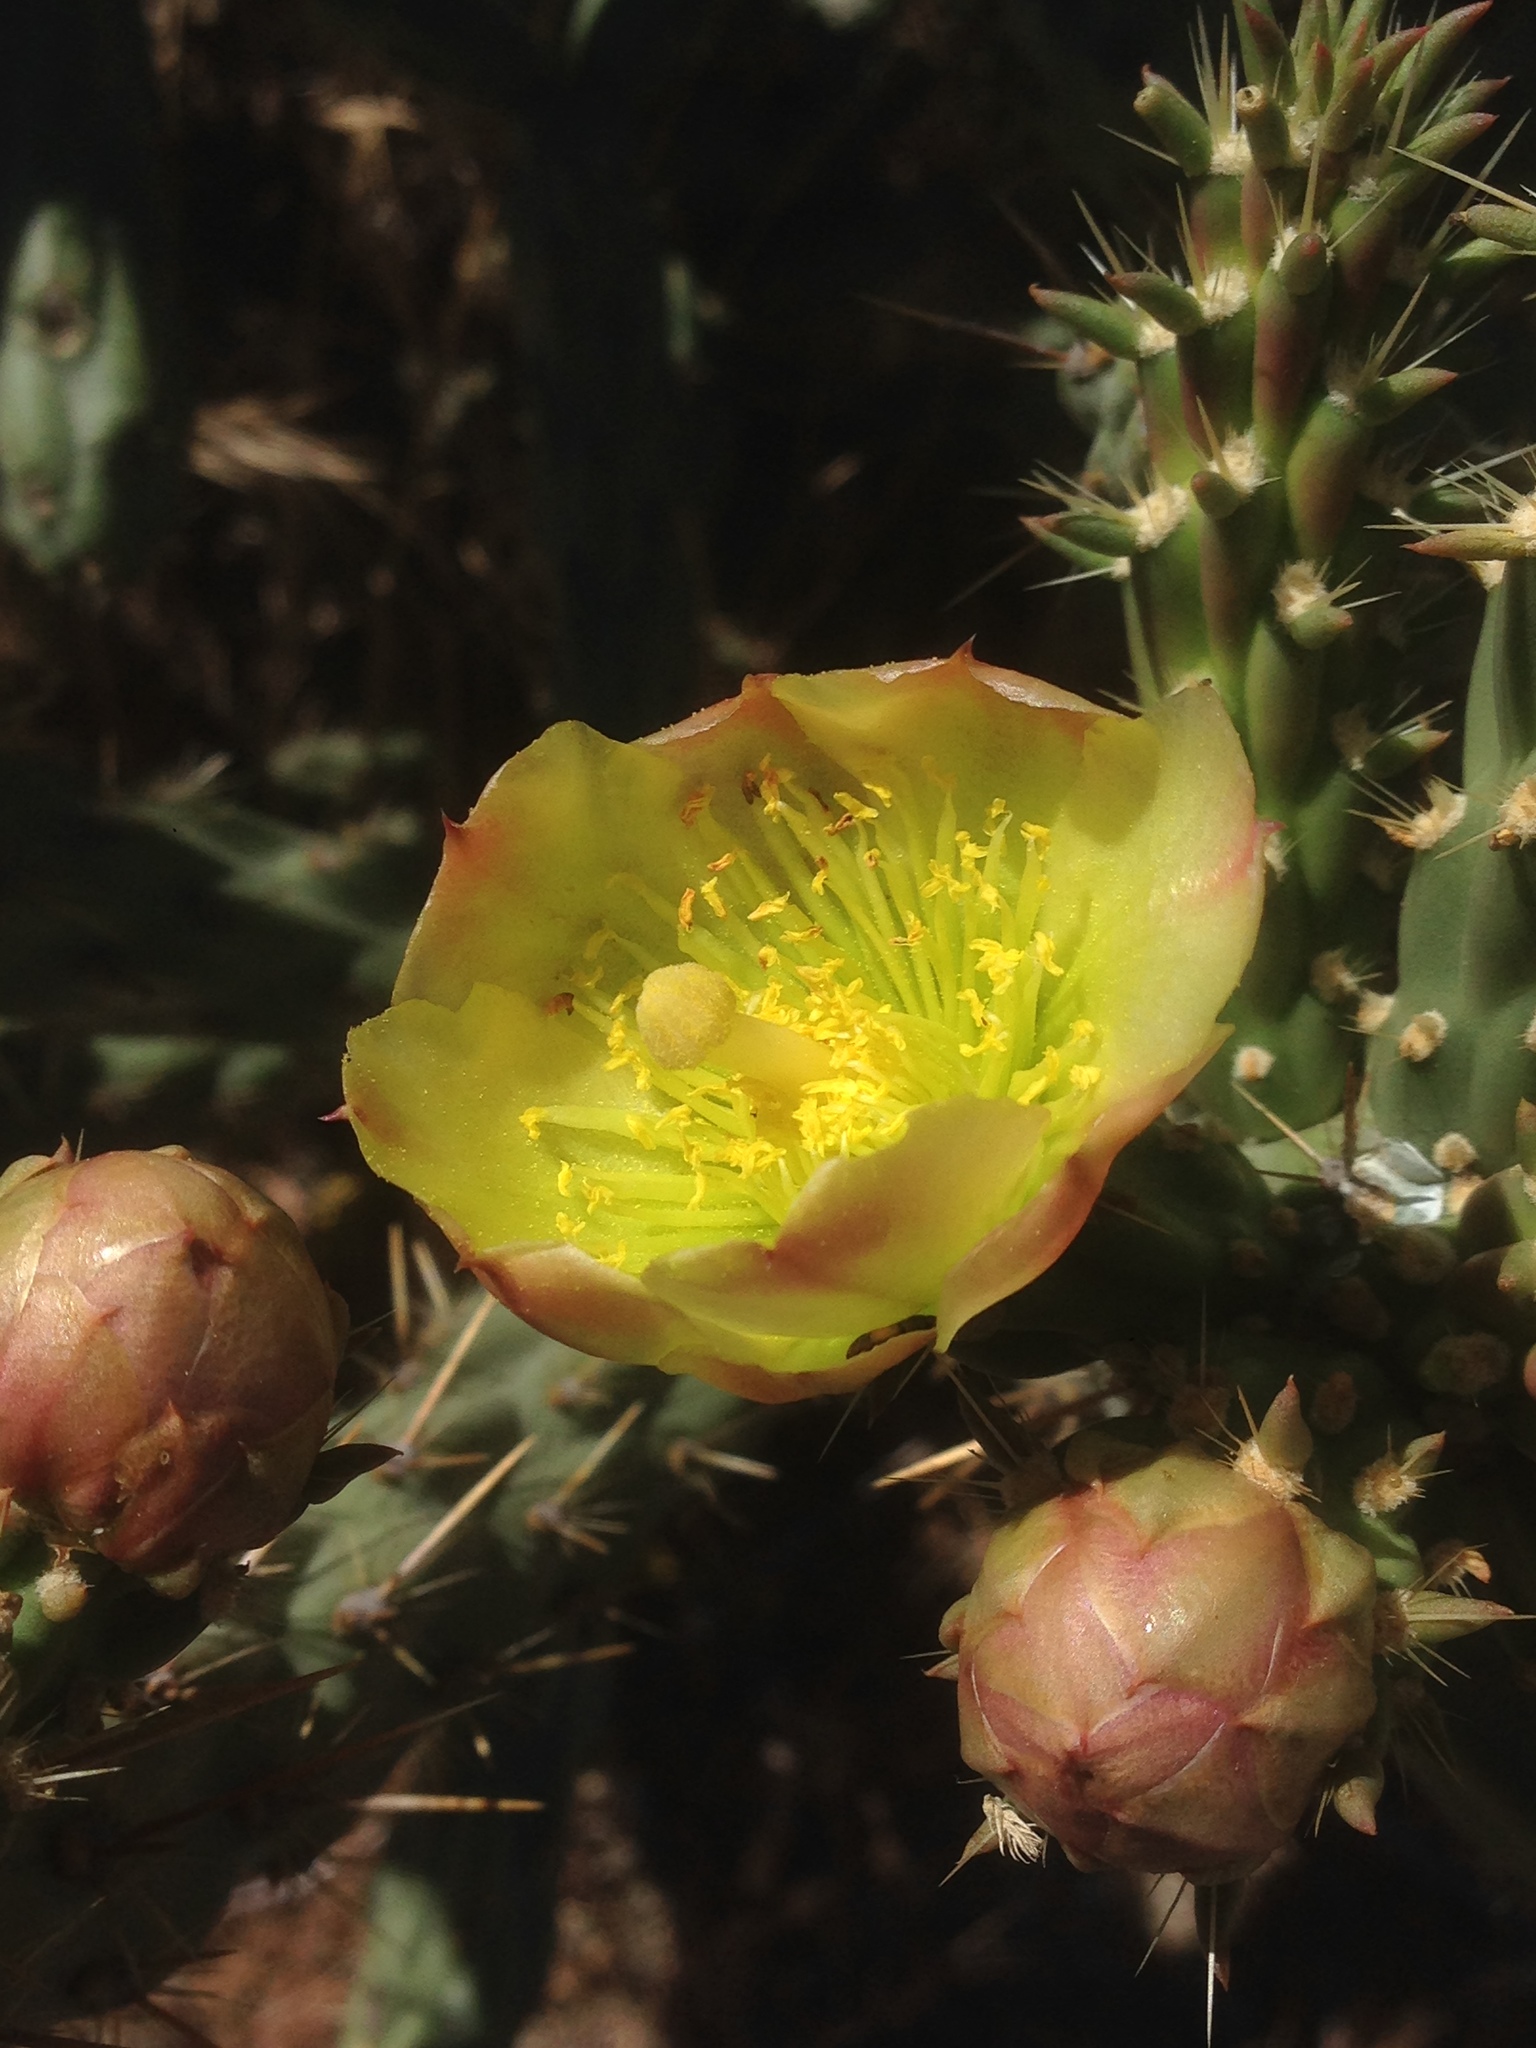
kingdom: Plantae
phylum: Tracheophyta
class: Magnoliopsida
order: Caryophyllales
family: Cactaceae
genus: Cylindropuntia
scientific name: Cylindropuntia bernardina
